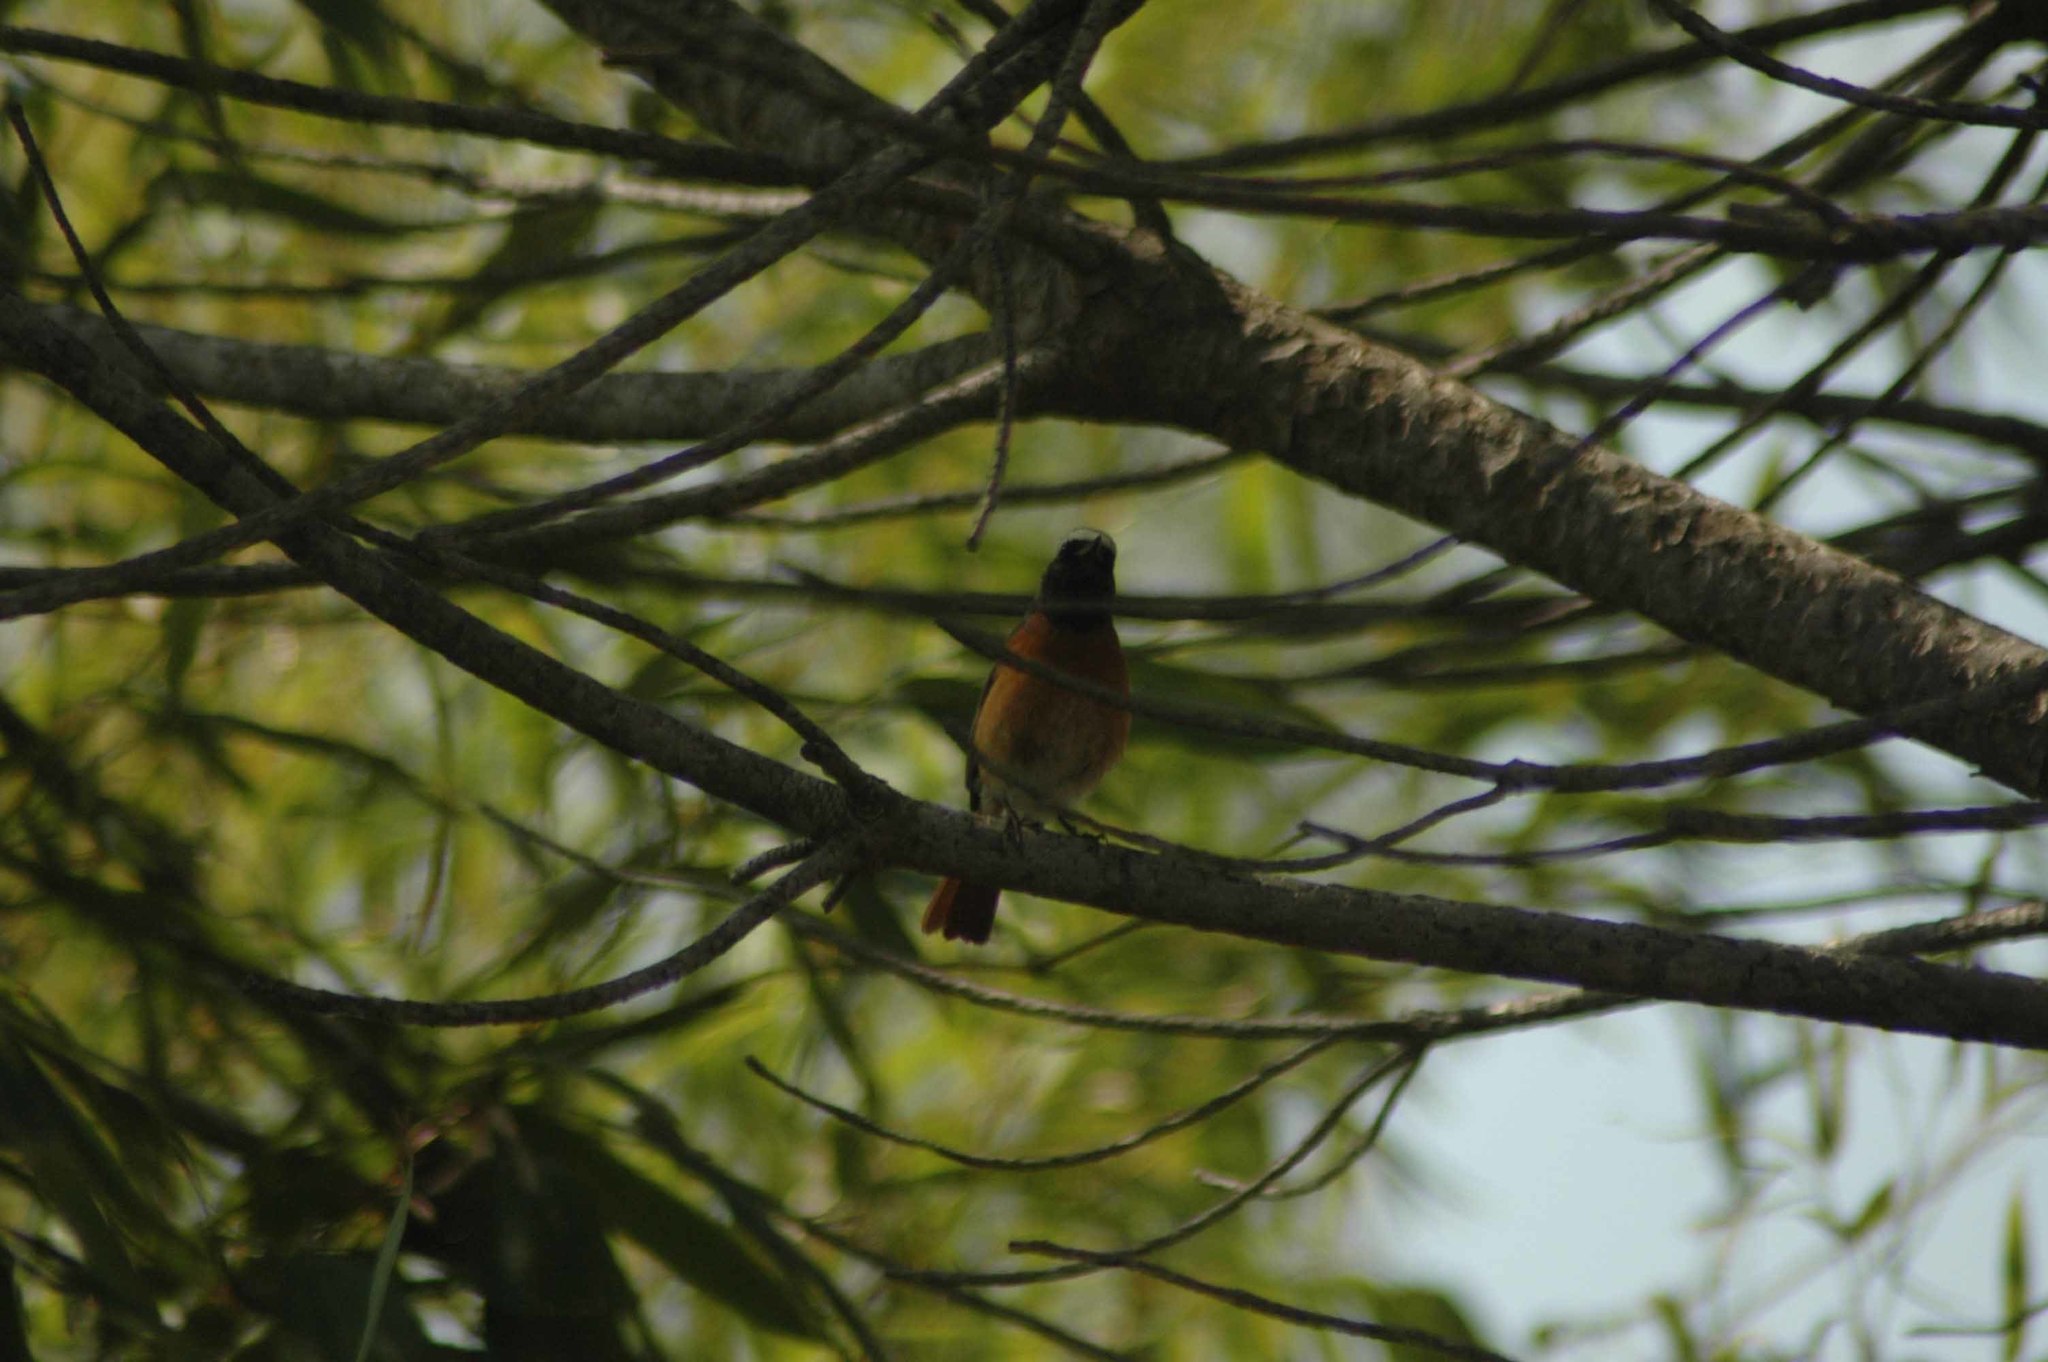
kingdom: Animalia
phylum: Chordata
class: Aves
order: Passeriformes
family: Muscicapidae
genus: Phoenicurus
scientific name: Phoenicurus phoenicurus
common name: Common redstart
